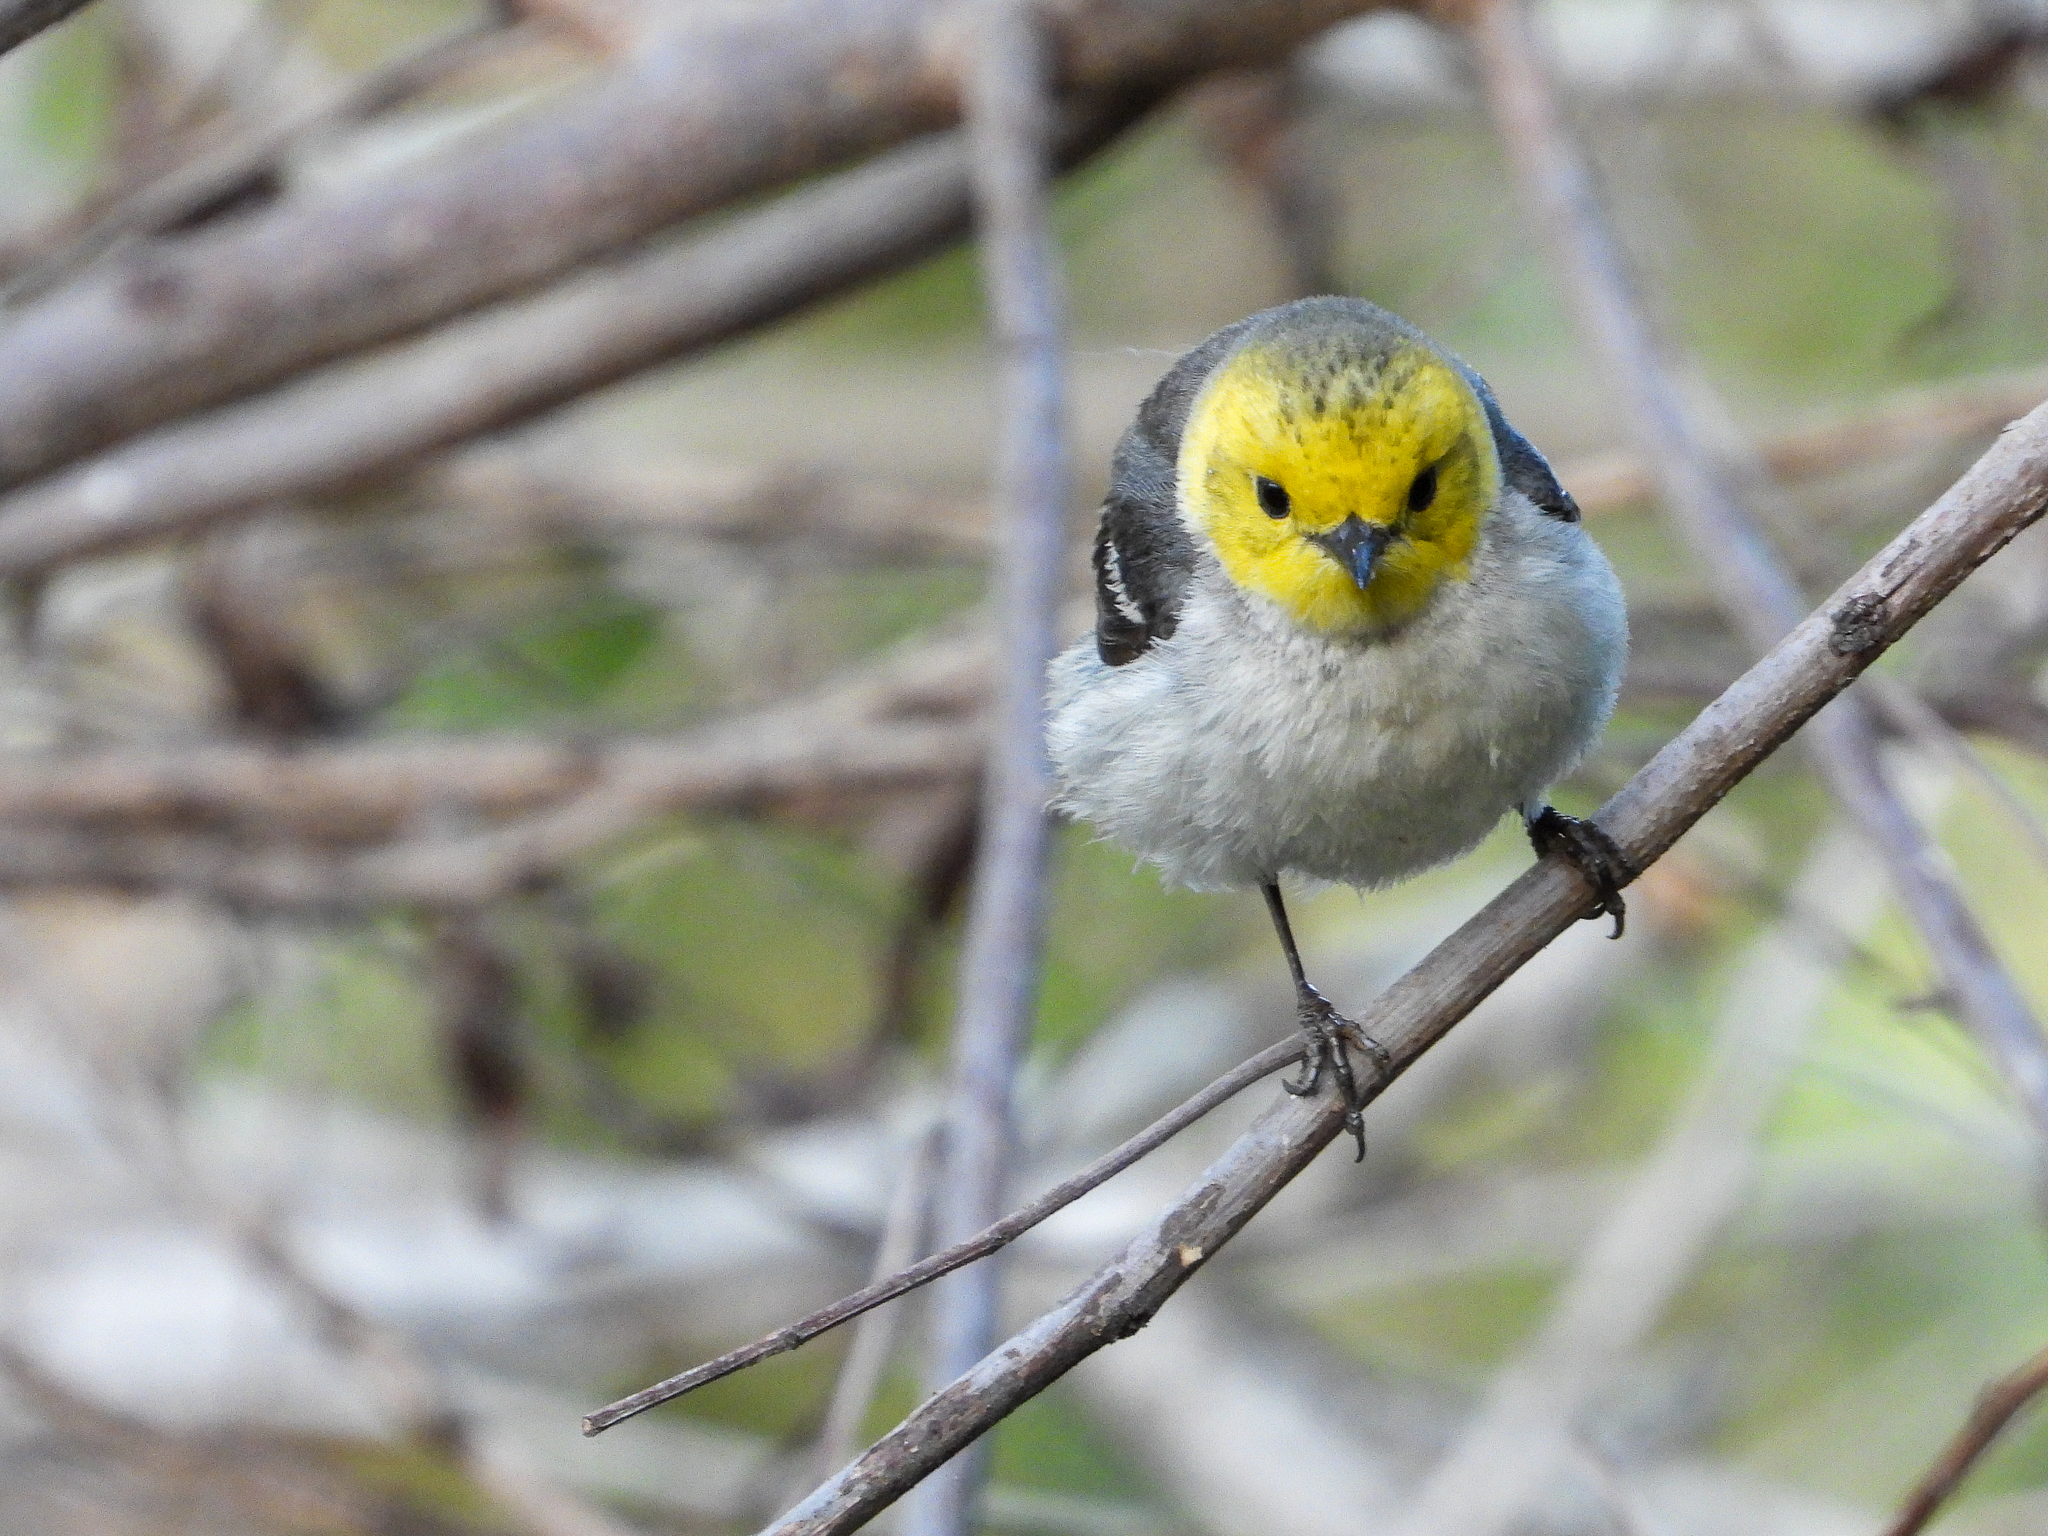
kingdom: Animalia
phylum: Chordata
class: Aves
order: Passeriformes
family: Parulidae
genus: Setophaga
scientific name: Setophaga occidentalis
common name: Hermit warbler
